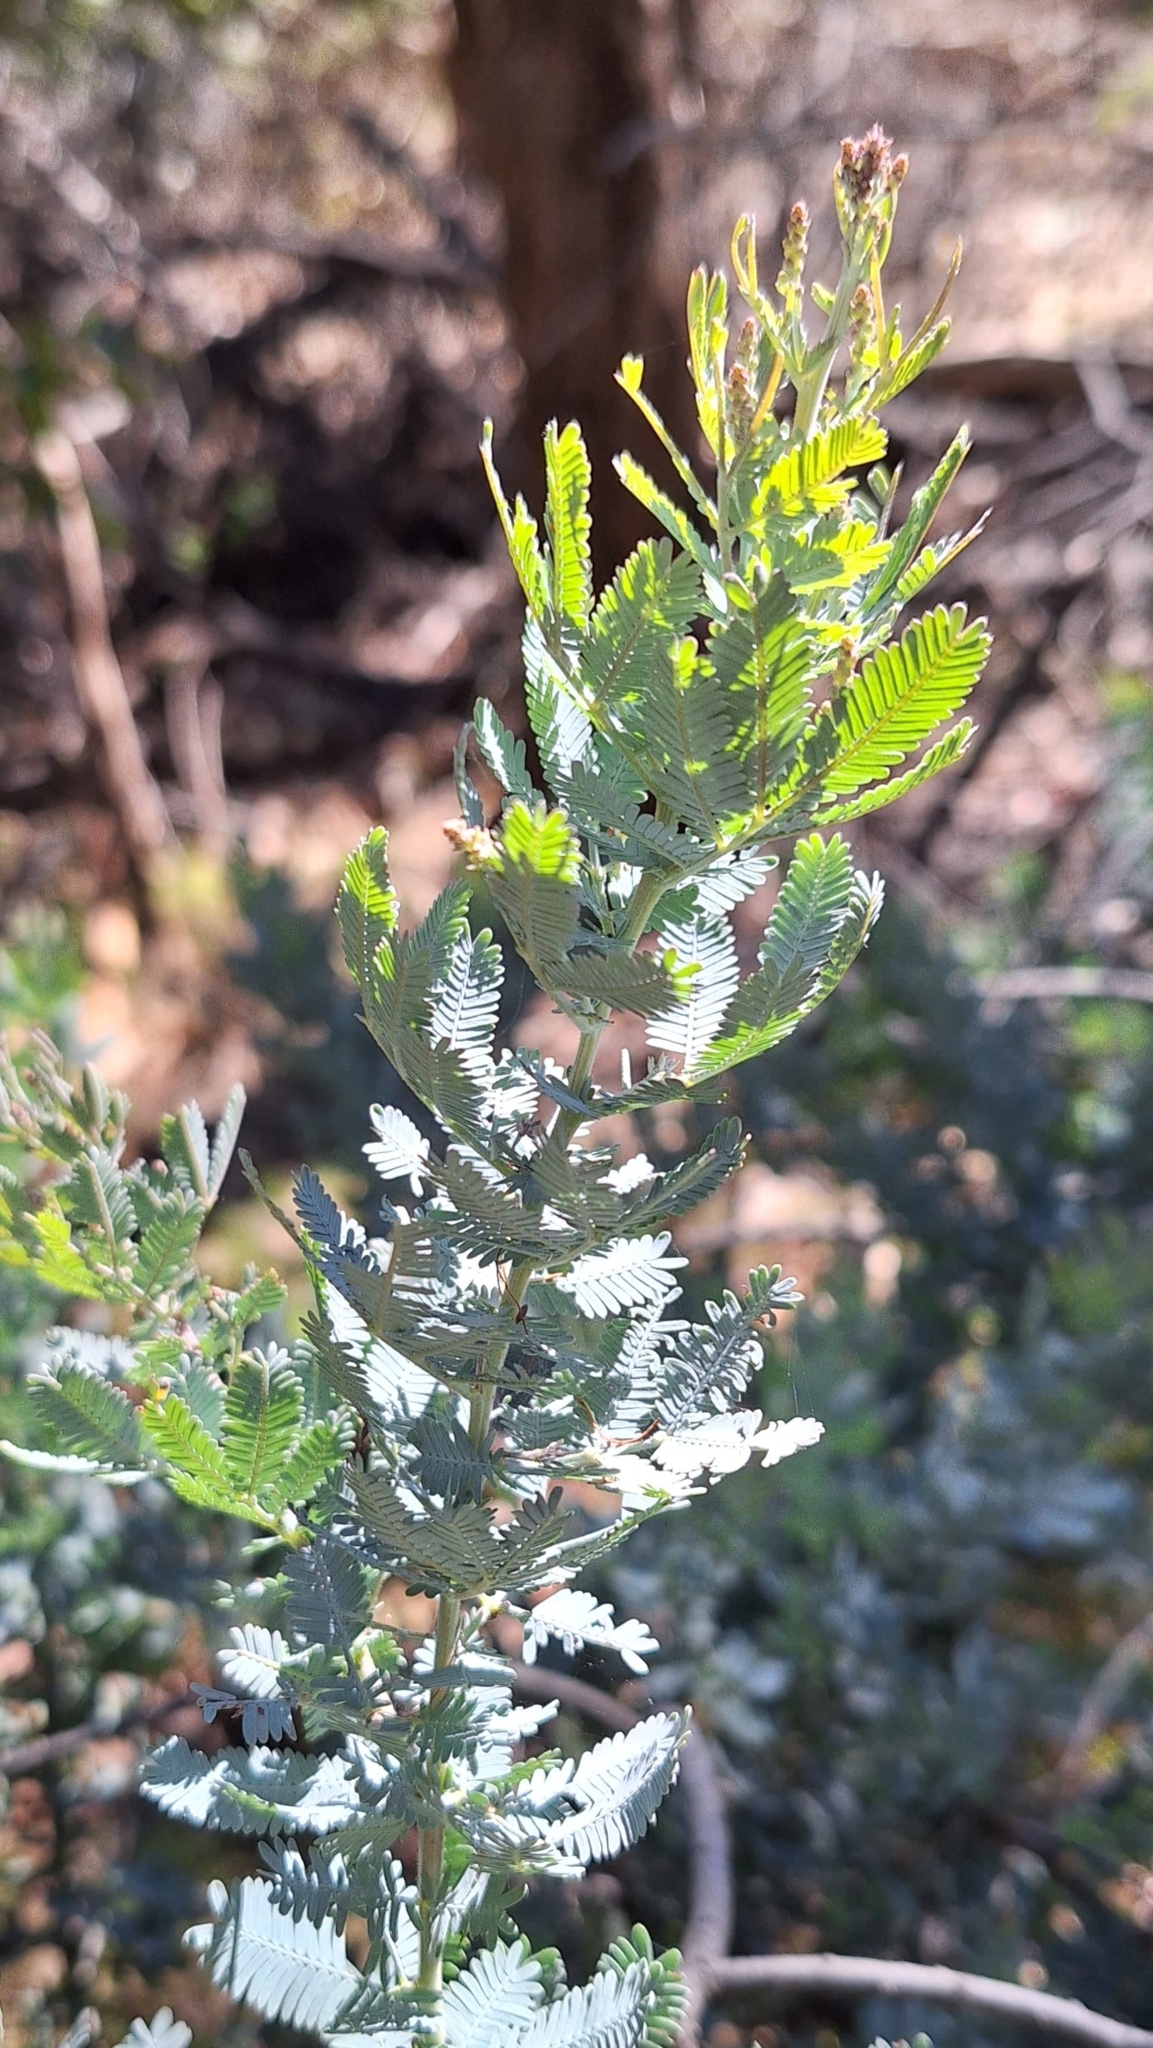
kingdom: Plantae
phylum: Tracheophyta
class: Magnoliopsida
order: Fabales
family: Fabaceae
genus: Acacia
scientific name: Acacia baileyana
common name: Cootamundra wattle
